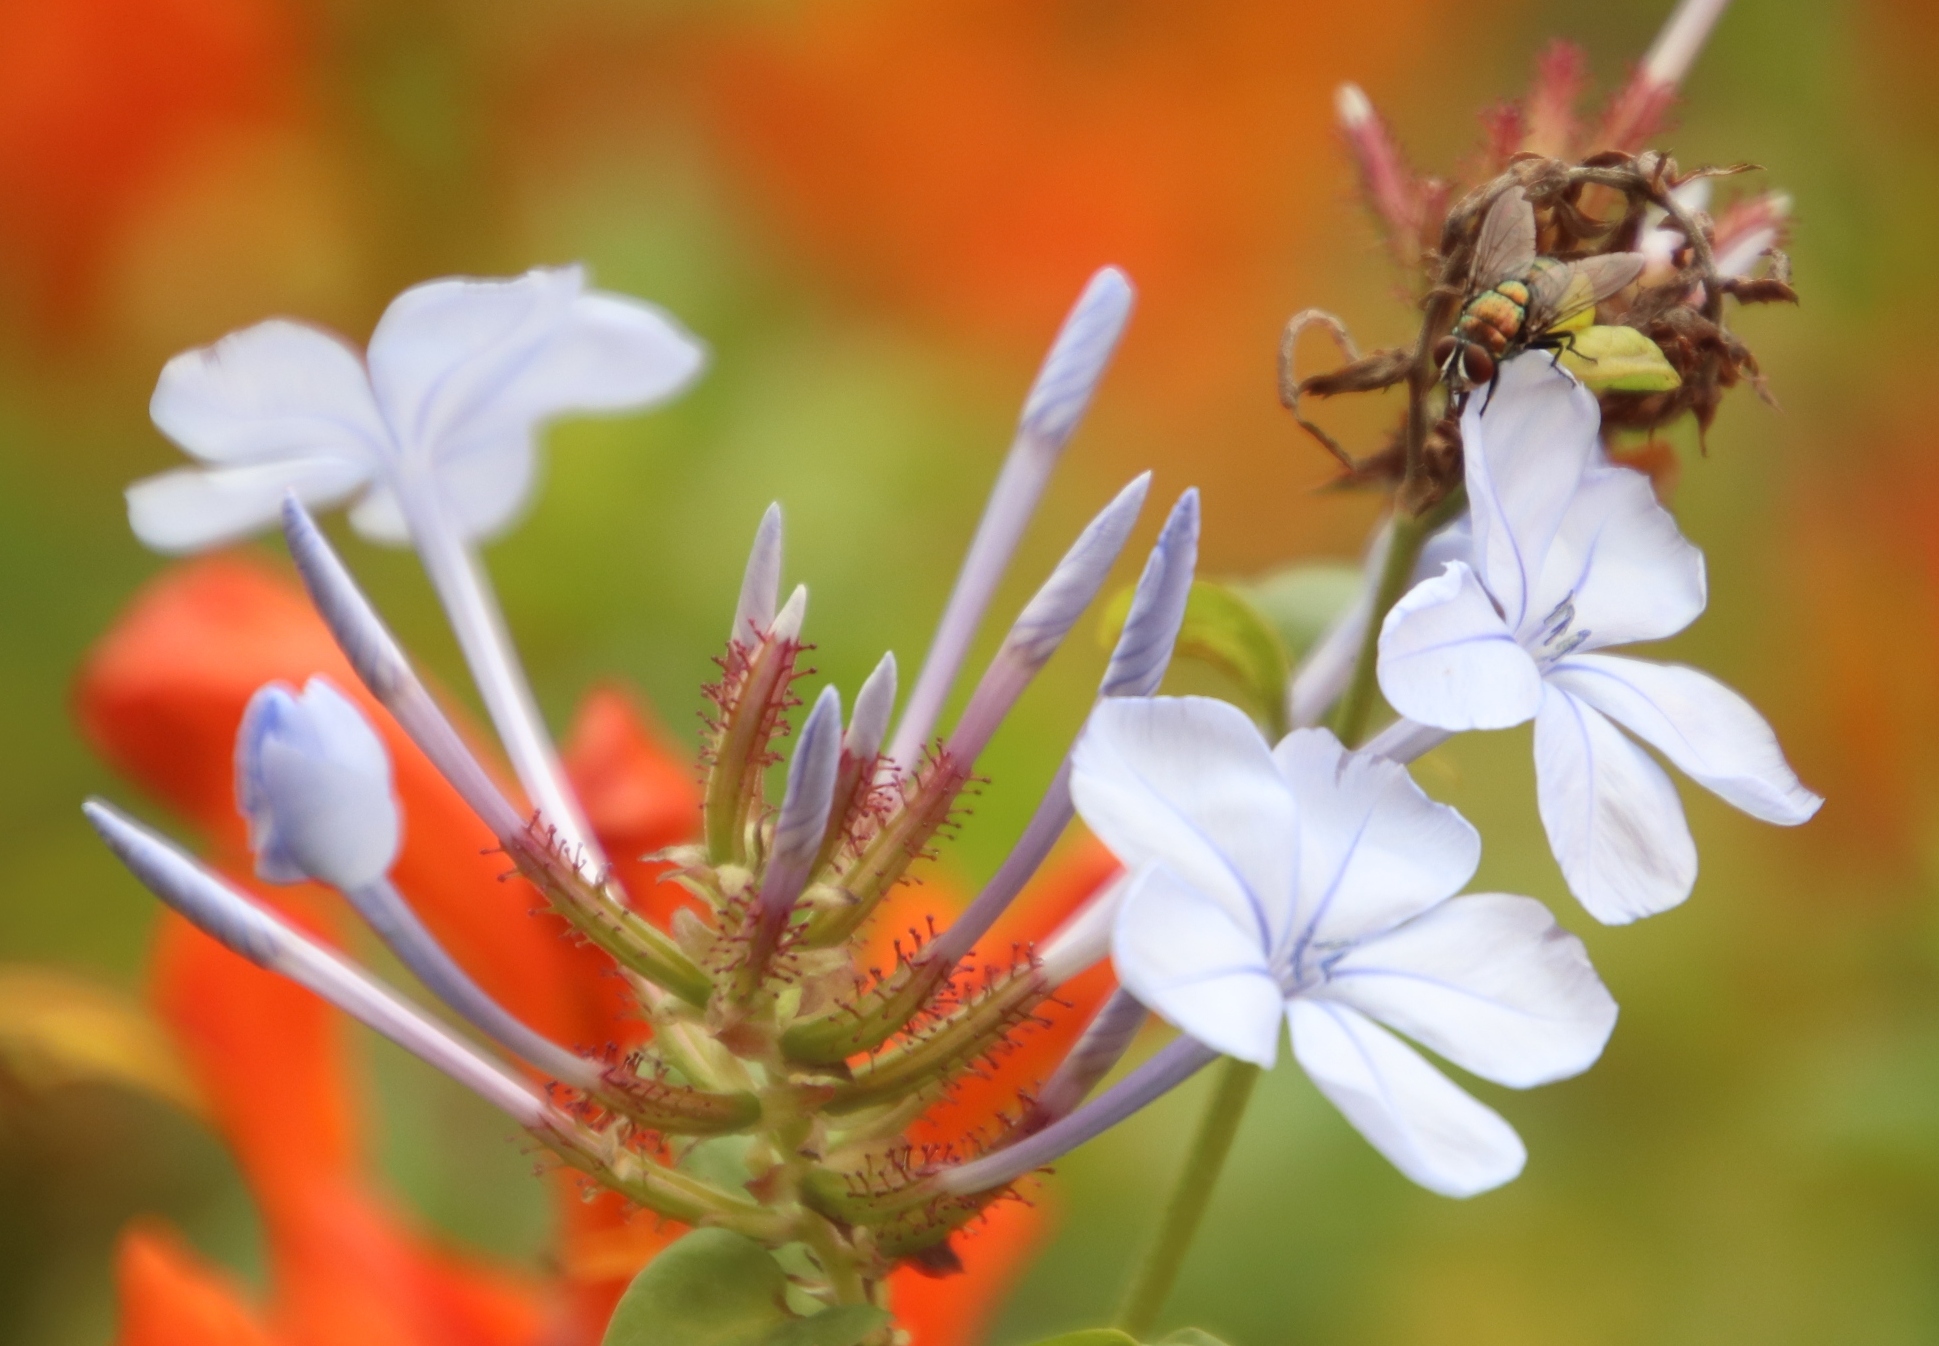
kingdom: Plantae
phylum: Tracheophyta
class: Magnoliopsida
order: Caryophyllales
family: Plumbaginaceae
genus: Plumbago
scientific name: Plumbago auriculata
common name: Cape leadwort
